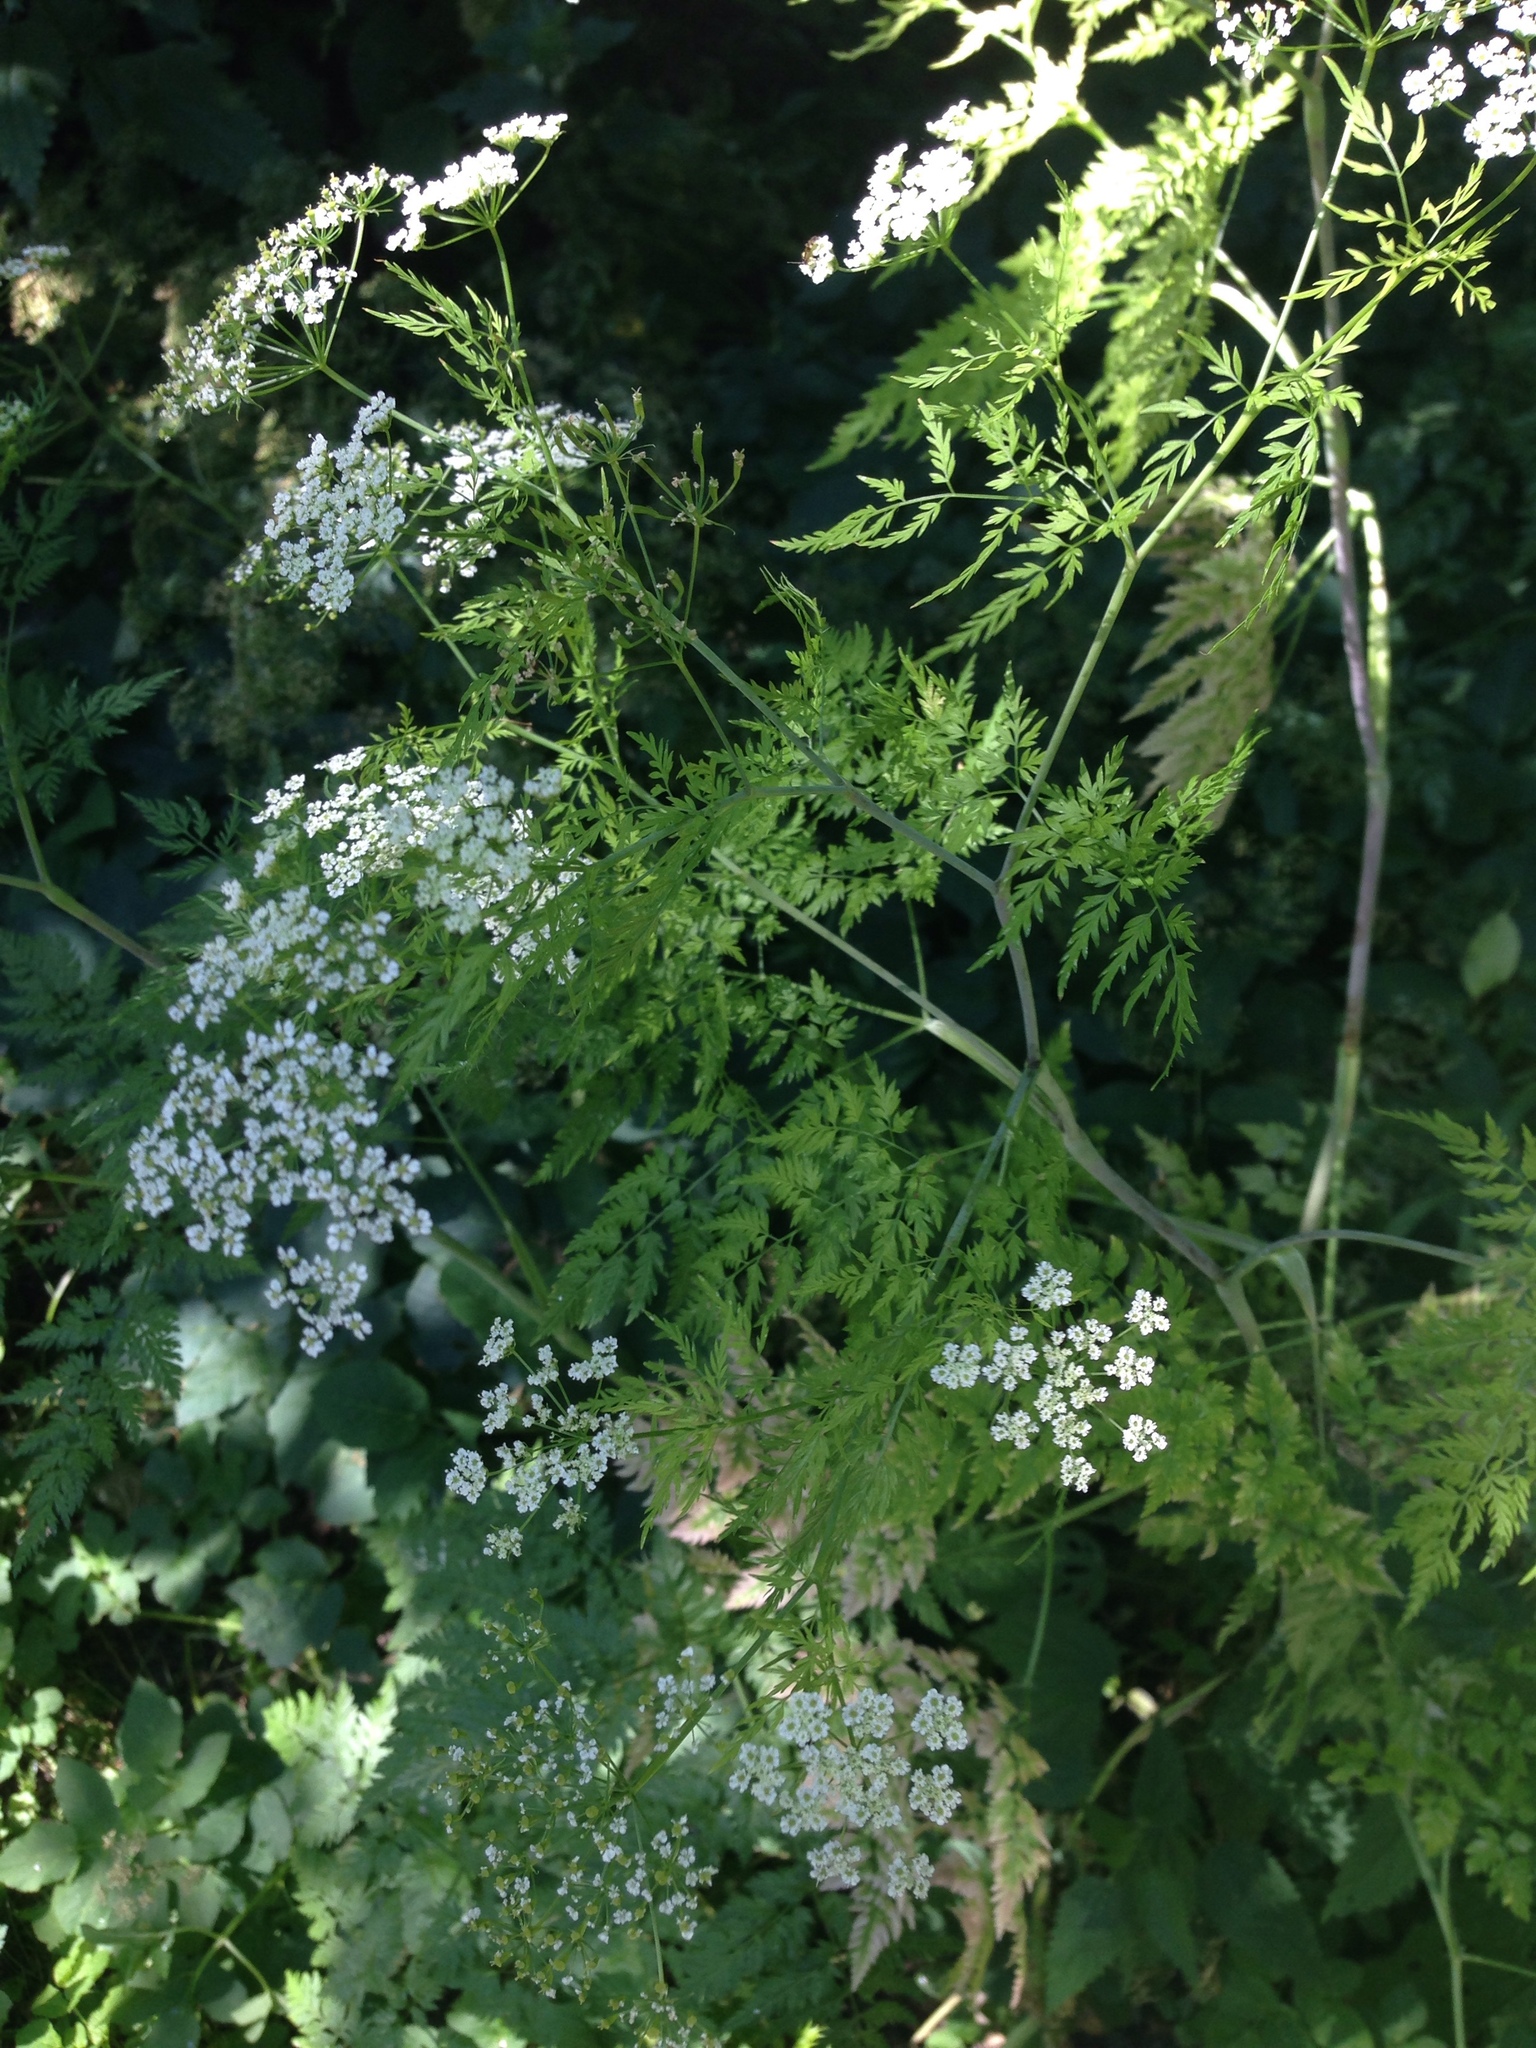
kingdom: Plantae
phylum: Tracheophyta
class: Magnoliopsida
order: Apiales
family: Apiaceae
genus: Chaerophyllum
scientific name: Chaerophyllum bulbosum
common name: Bulbous chervil
